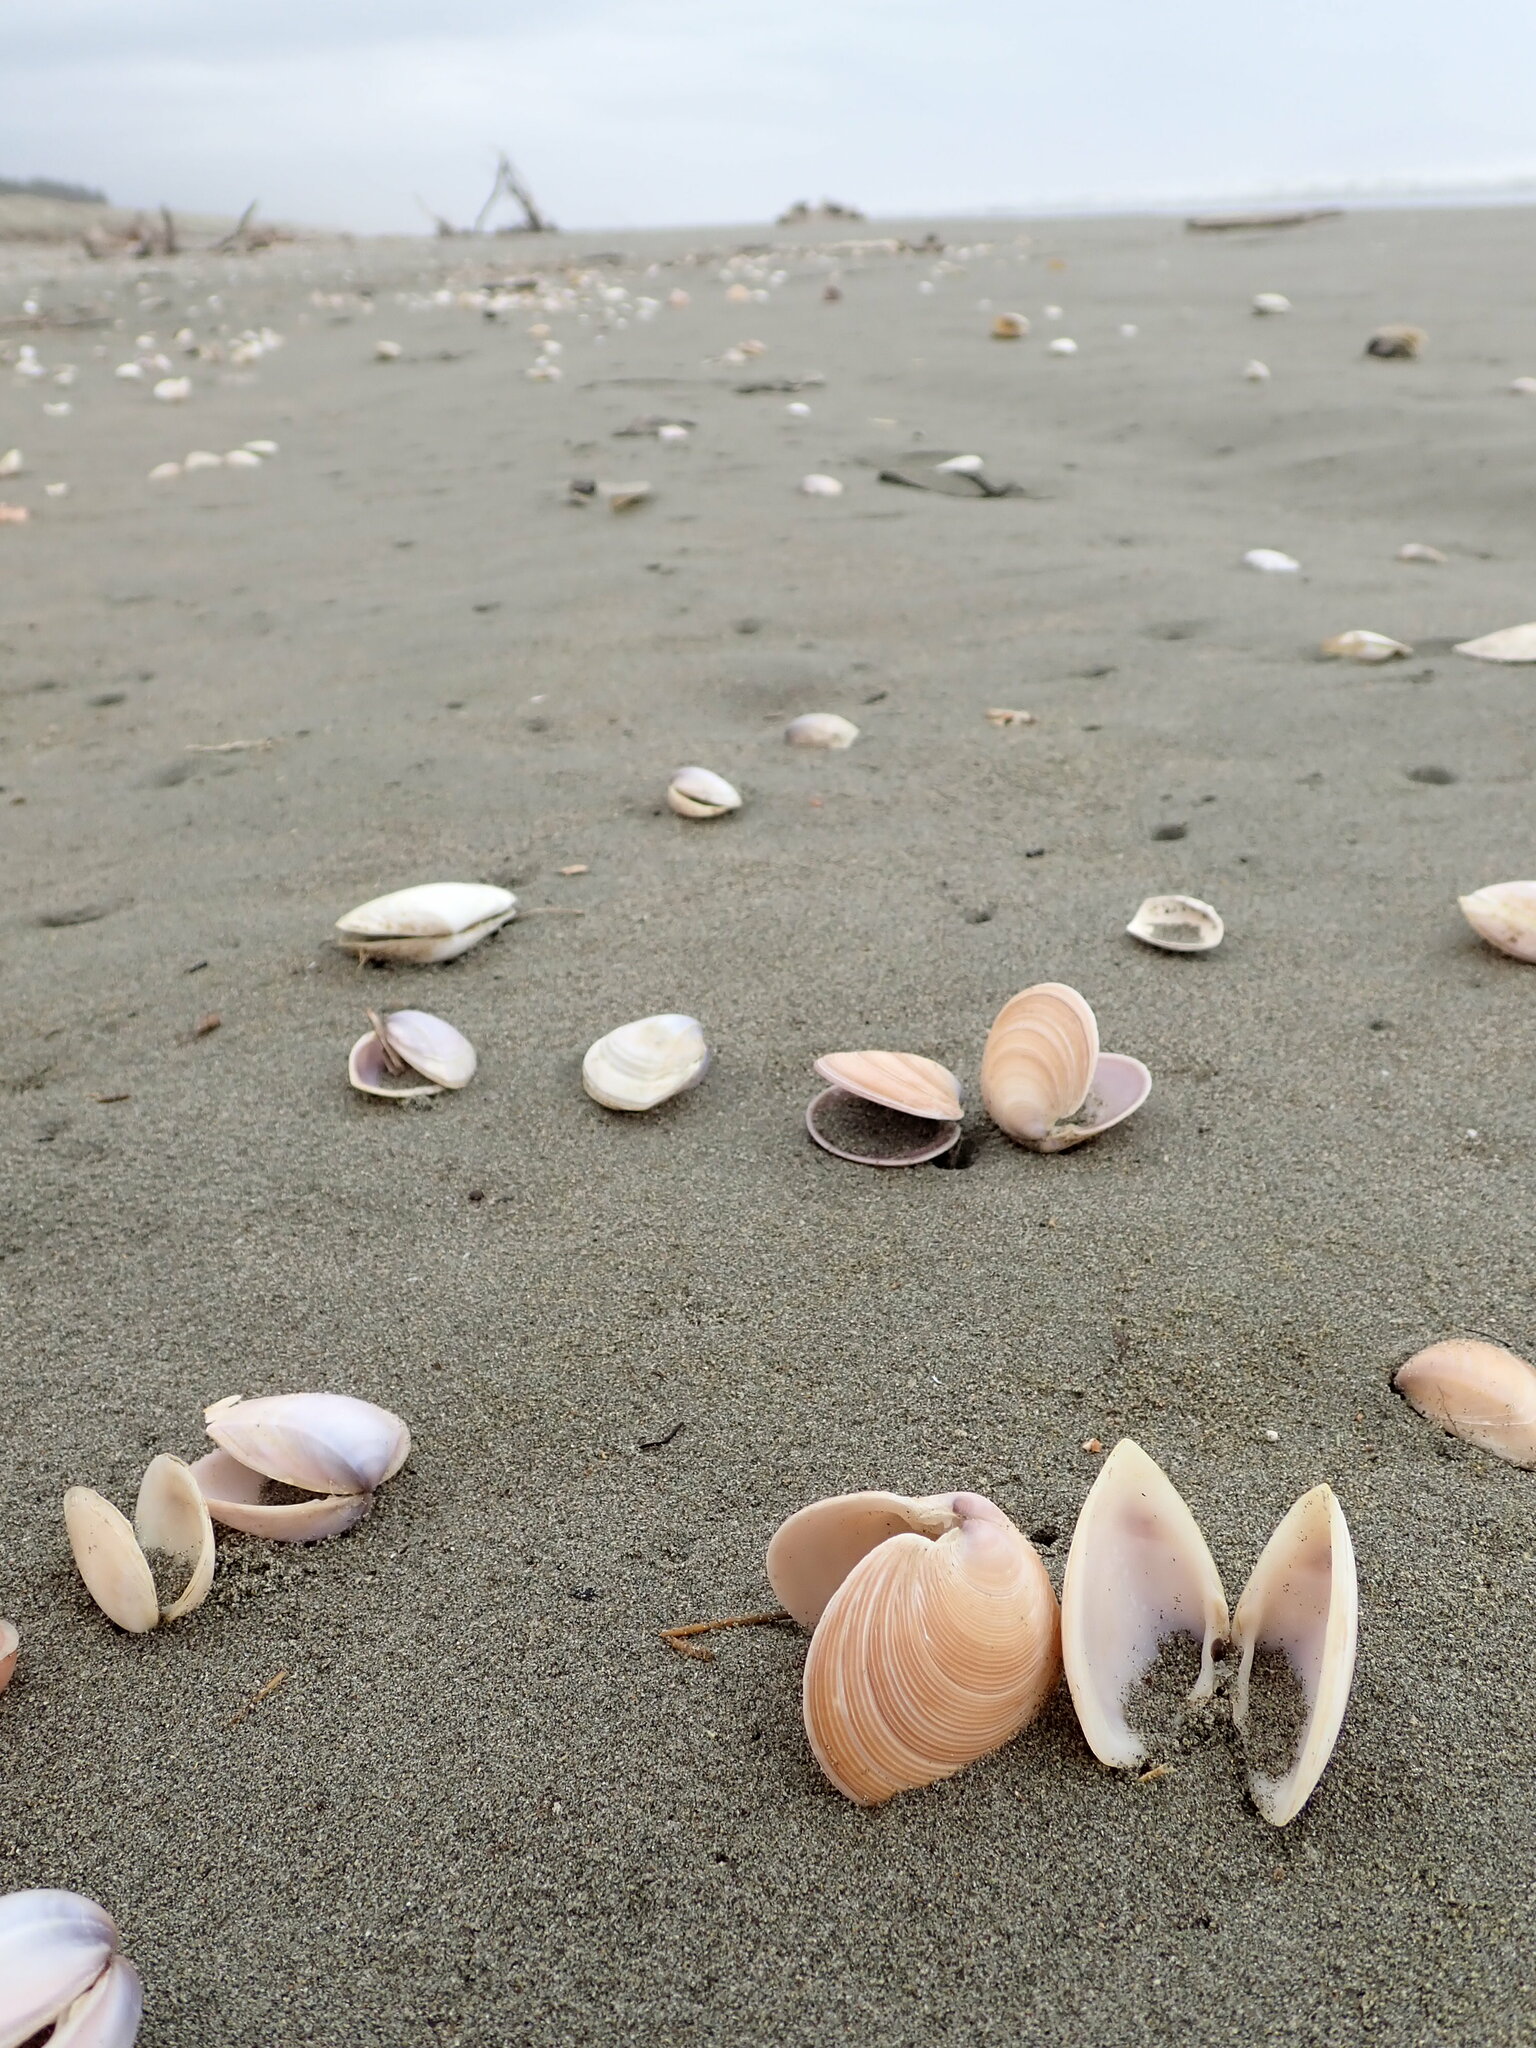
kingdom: Animalia
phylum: Mollusca
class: Bivalvia
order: Venerida
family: Veneridae
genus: Dosinia
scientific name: Dosinia anus
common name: Old-woman dosinia
